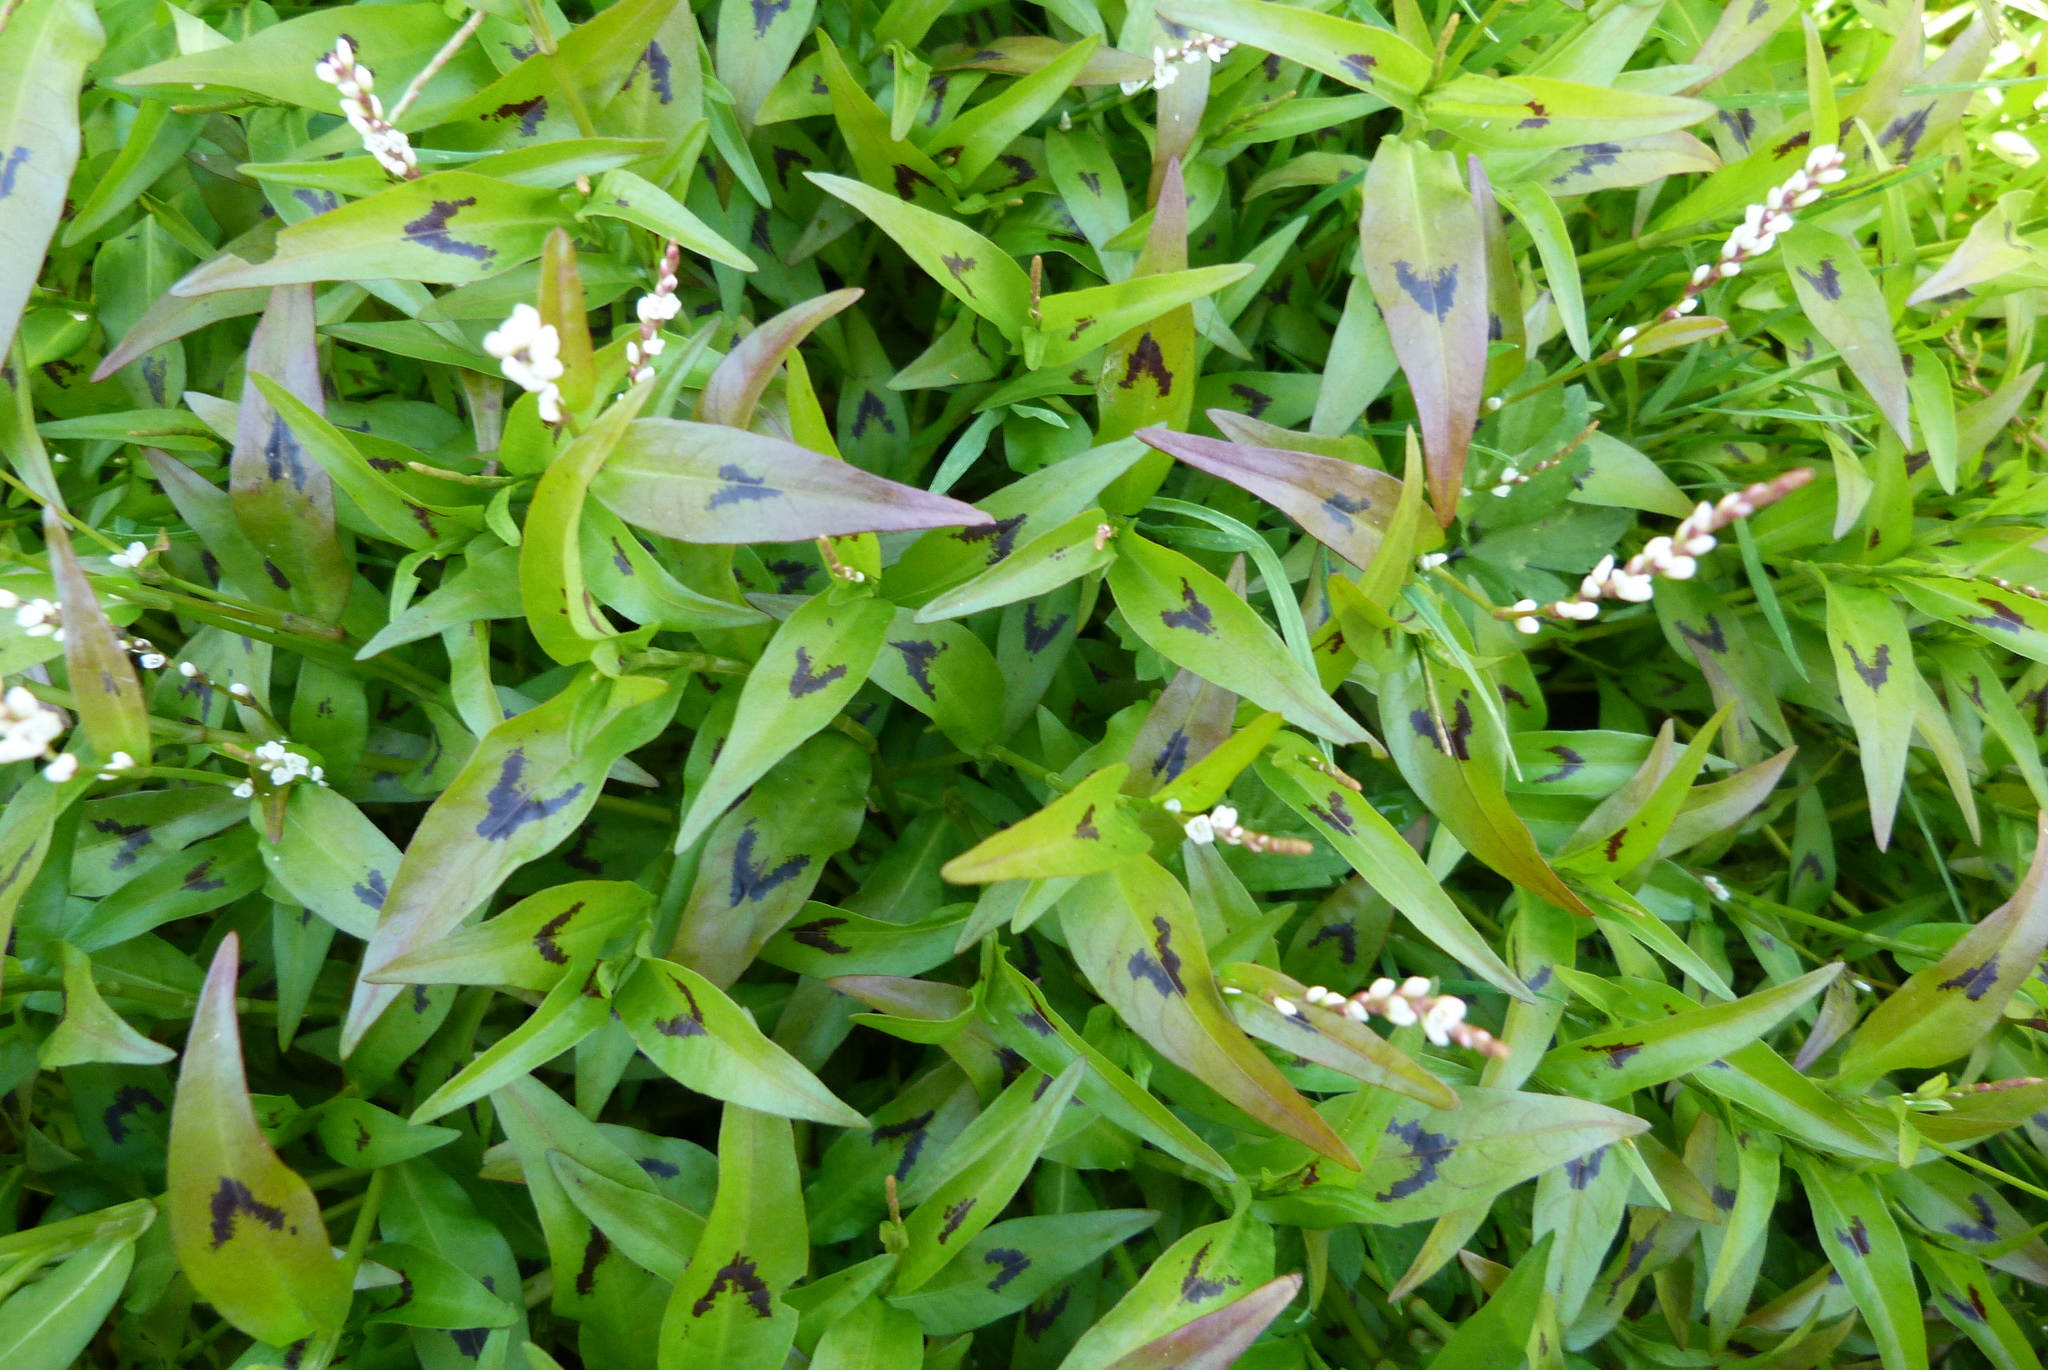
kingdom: Plantae
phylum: Tracheophyta
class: Magnoliopsida
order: Caryophyllales
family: Polygonaceae
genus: Persicaria
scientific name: Persicaria decipiens
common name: Willow-weed
